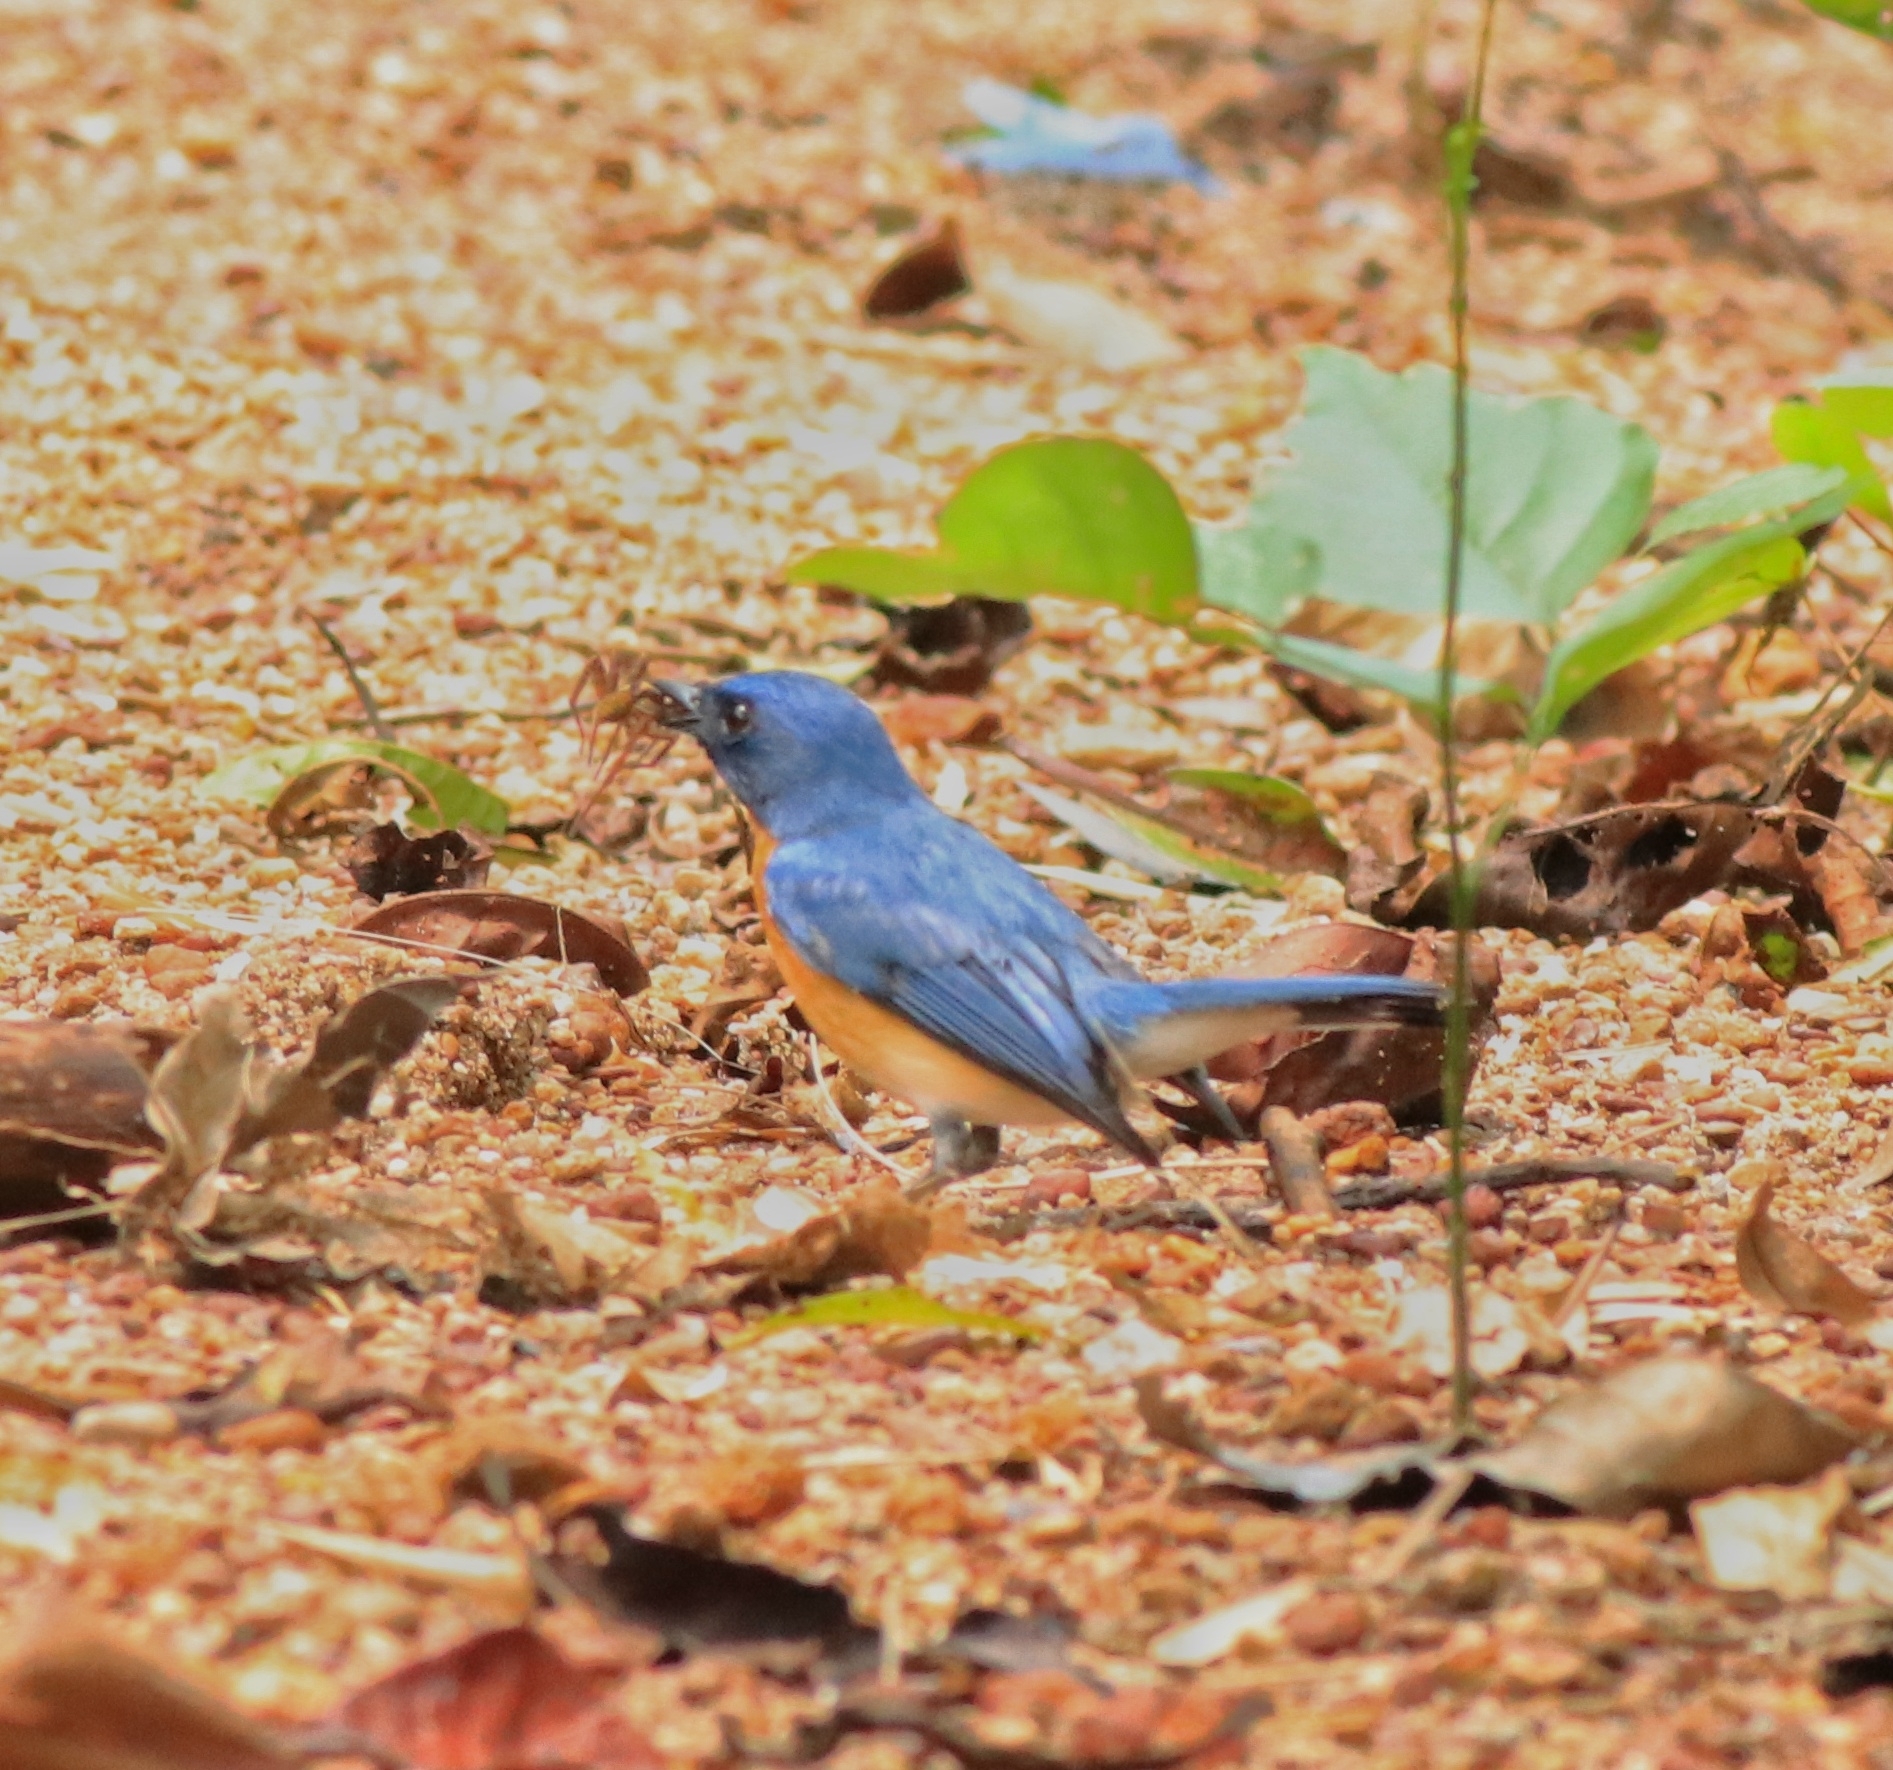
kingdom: Animalia
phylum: Chordata
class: Aves
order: Passeriformes
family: Muscicapidae
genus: Cyornis
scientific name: Cyornis tickelliae
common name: Tickell's blue flycatcher
